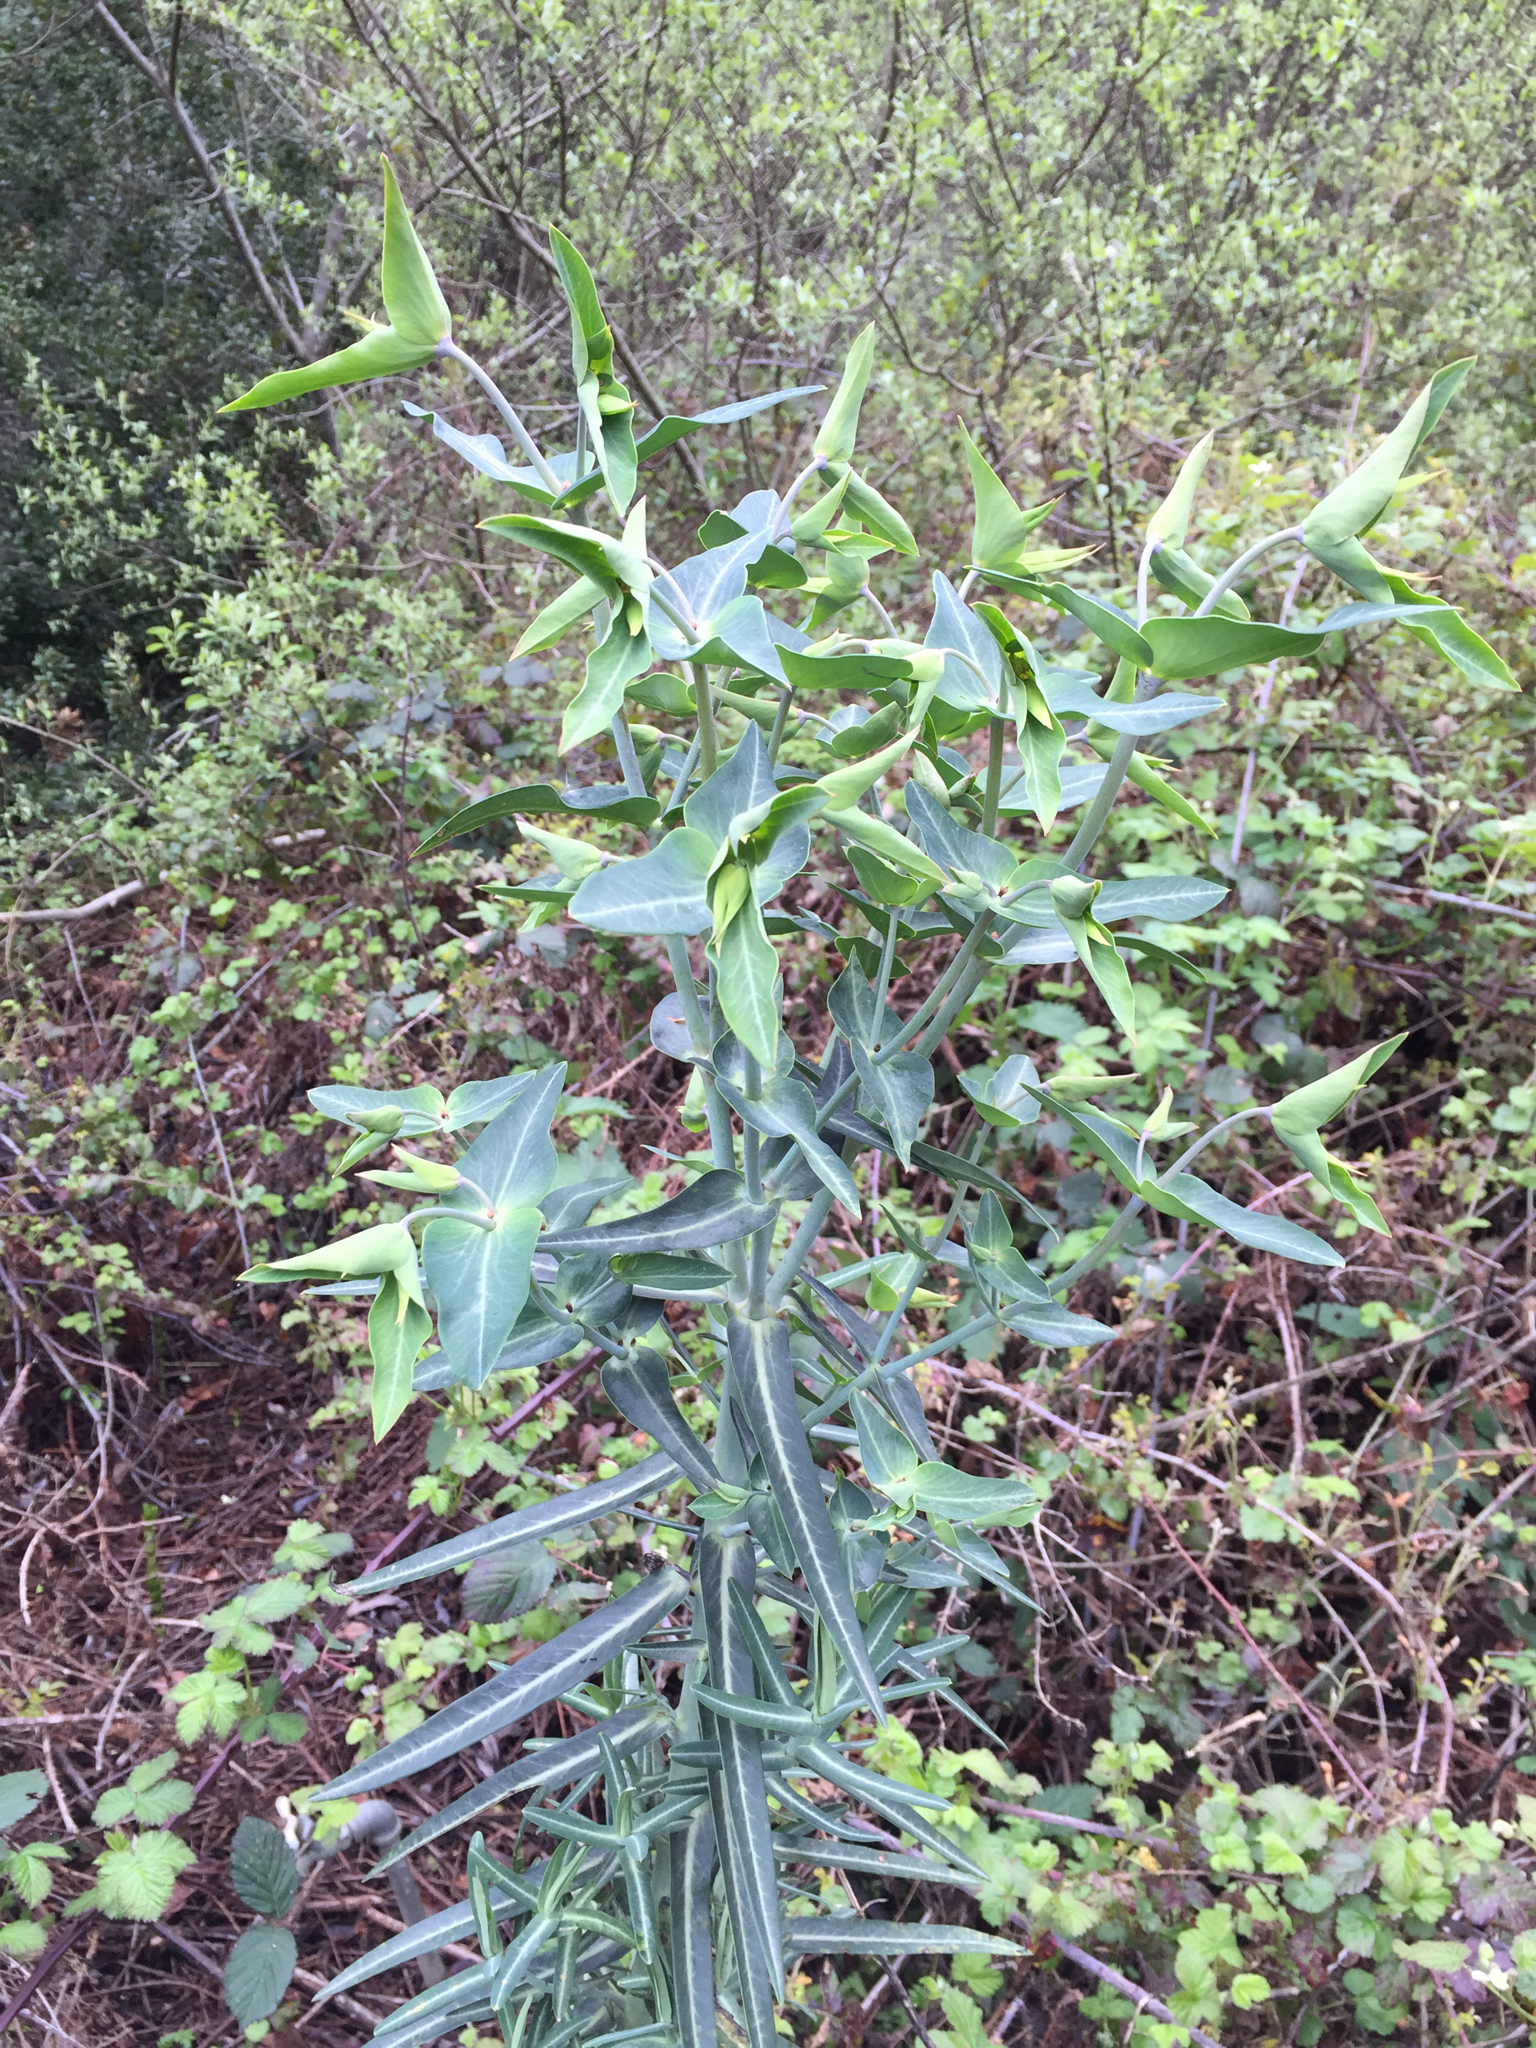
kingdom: Plantae
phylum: Tracheophyta
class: Magnoliopsida
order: Malpighiales
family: Euphorbiaceae
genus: Euphorbia
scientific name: Euphorbia lathyris
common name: Caper spurge
